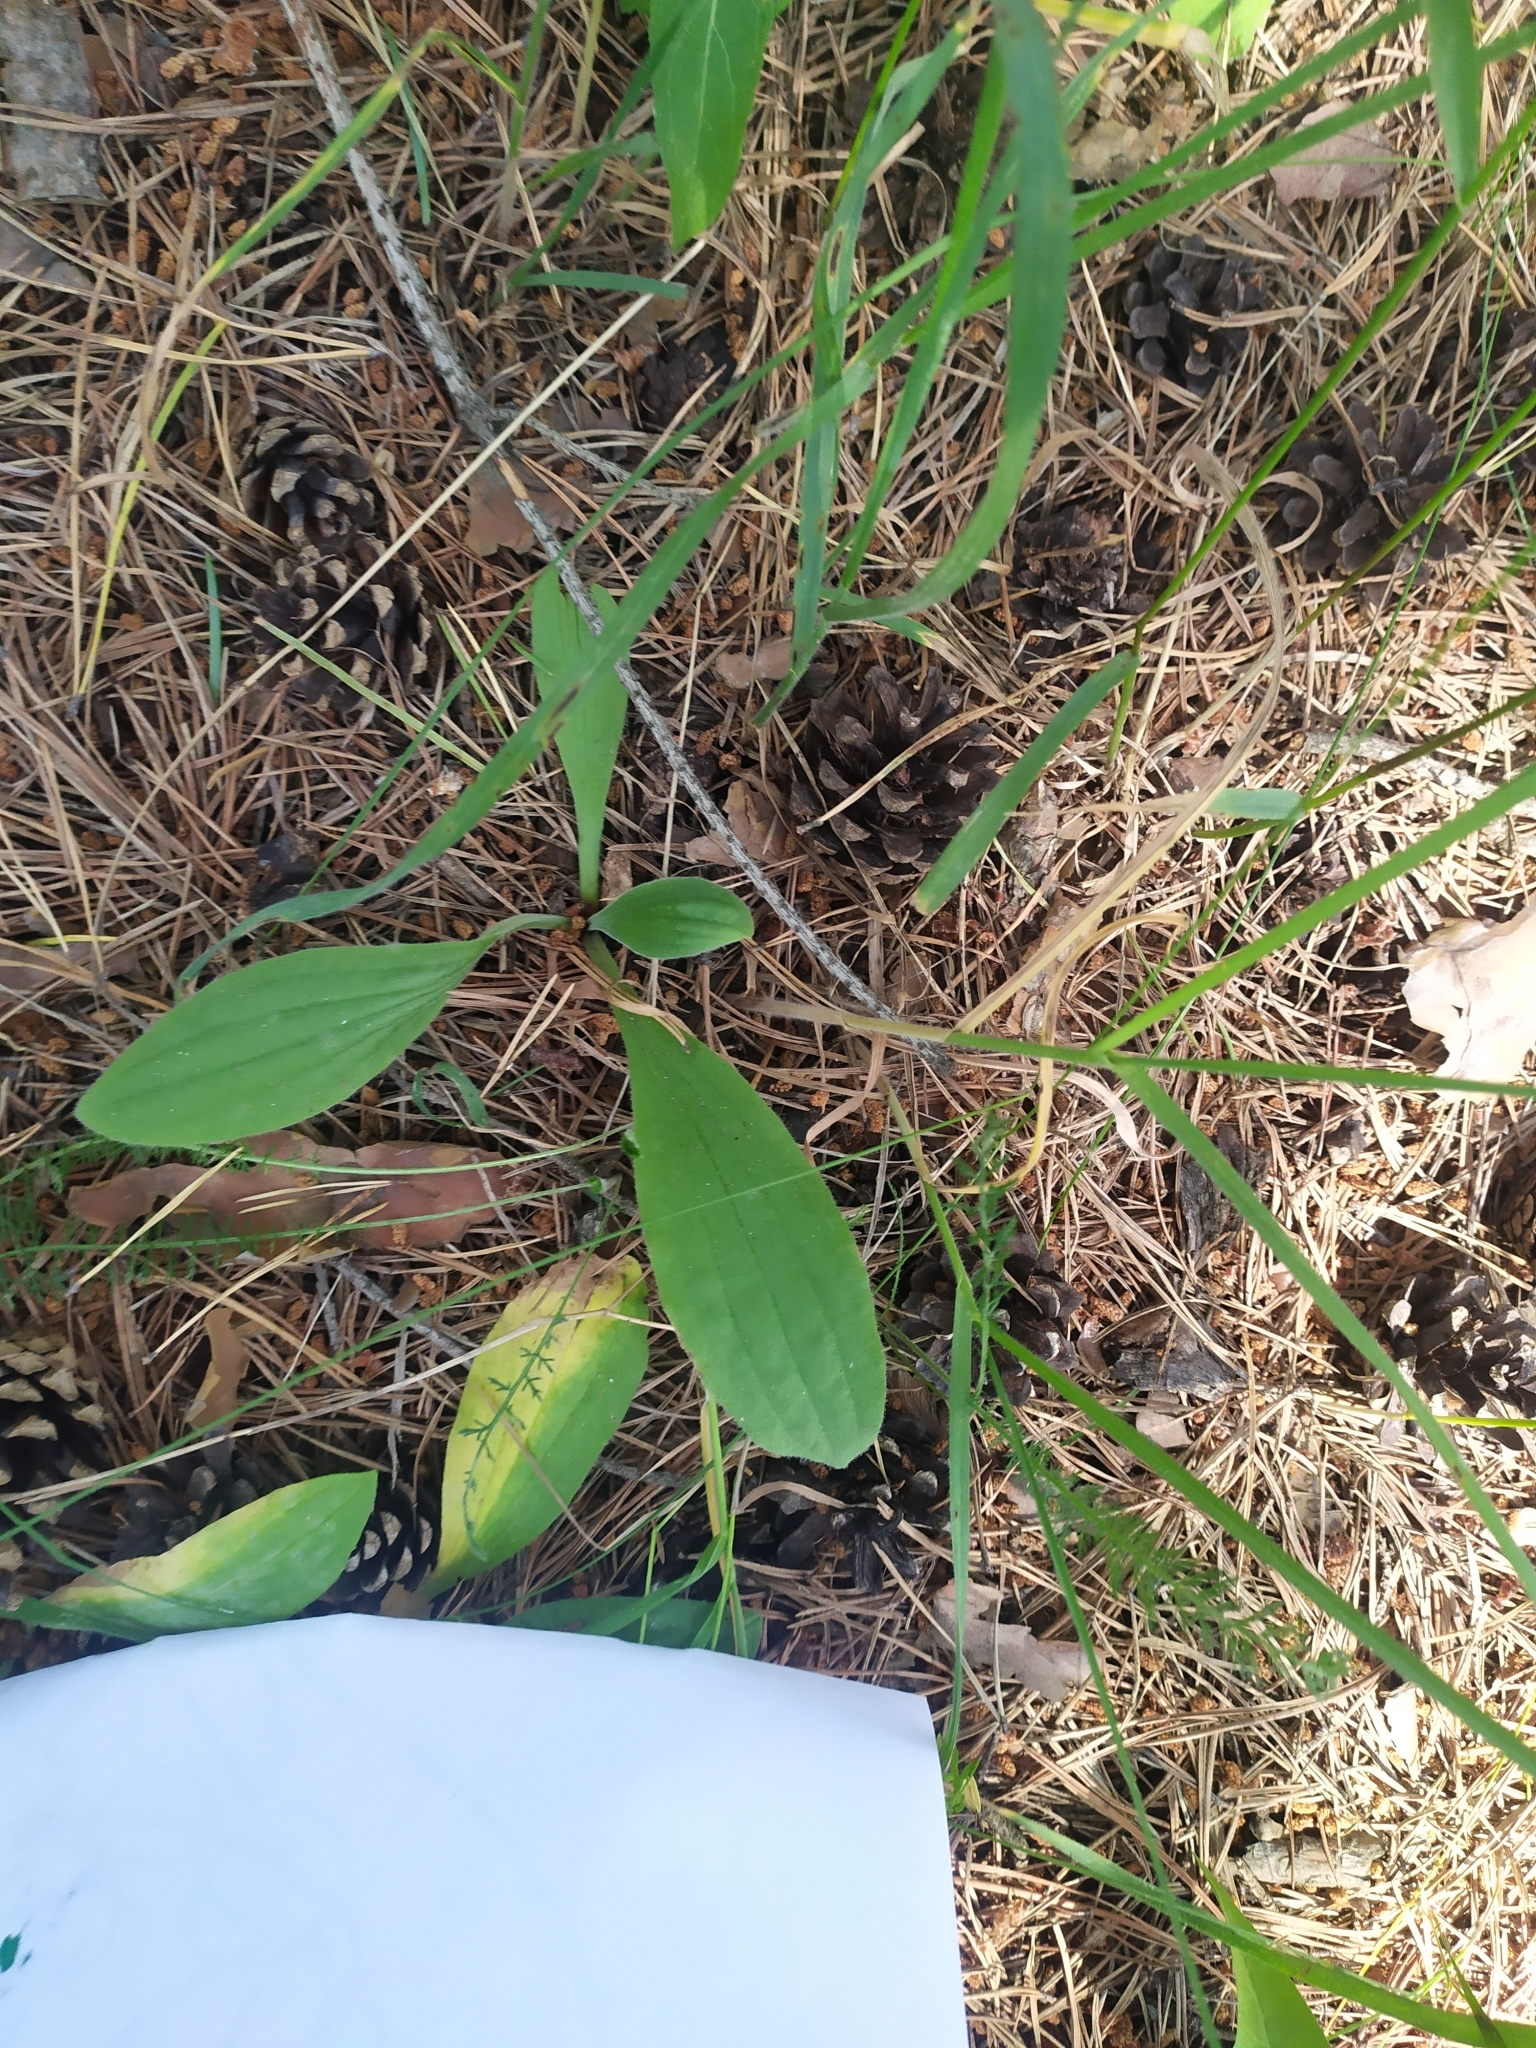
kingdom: Plantae
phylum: Tracheophyta
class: Magnoliopsida
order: Lamiales
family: Plantaginaceae
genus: Plantago
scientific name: Plantago media
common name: Hoary plantain
